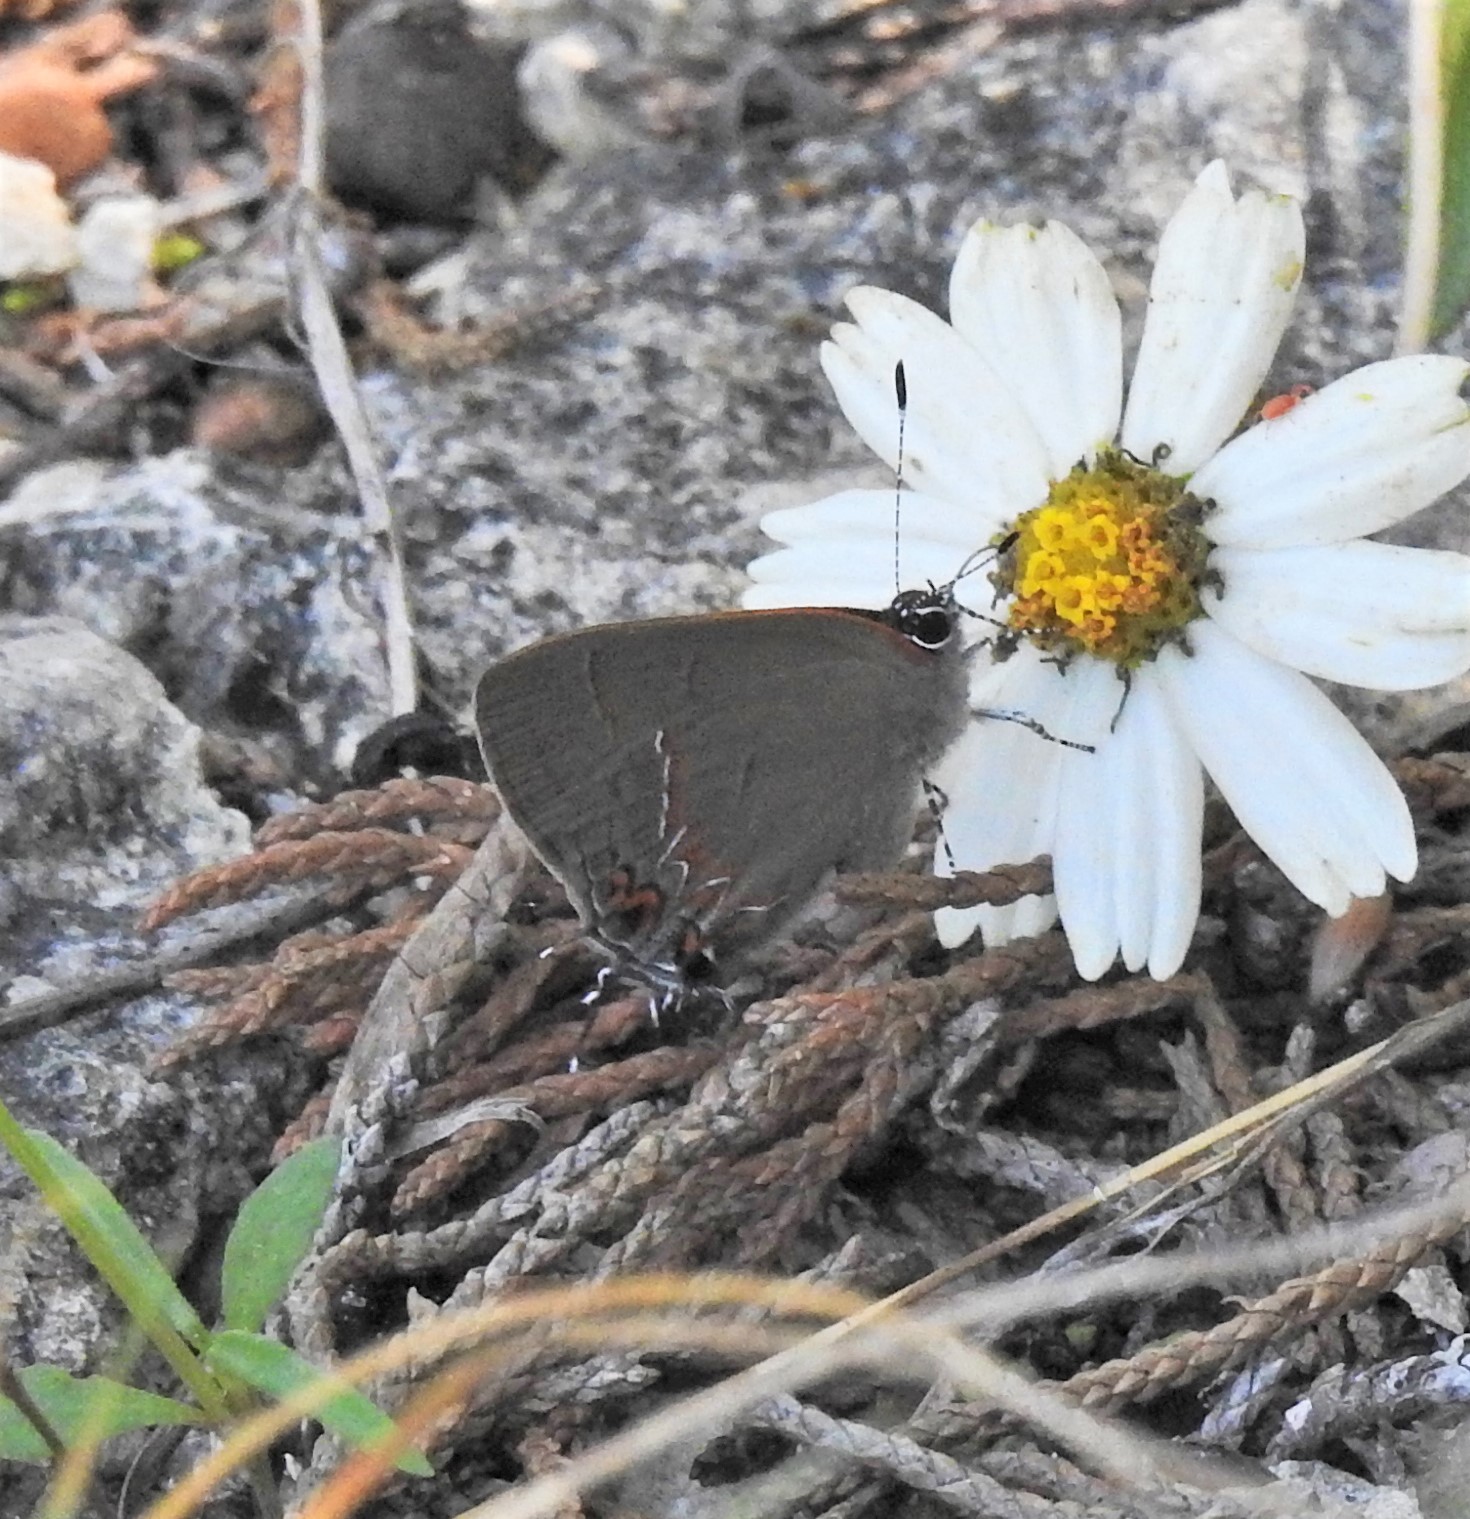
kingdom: Animalia
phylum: Arthropoda
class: Insecta
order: Lepidoptera
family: Lycaenidae
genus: Calycopis
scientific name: Calycopis isobeon
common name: Dusky-blue groundstreak
